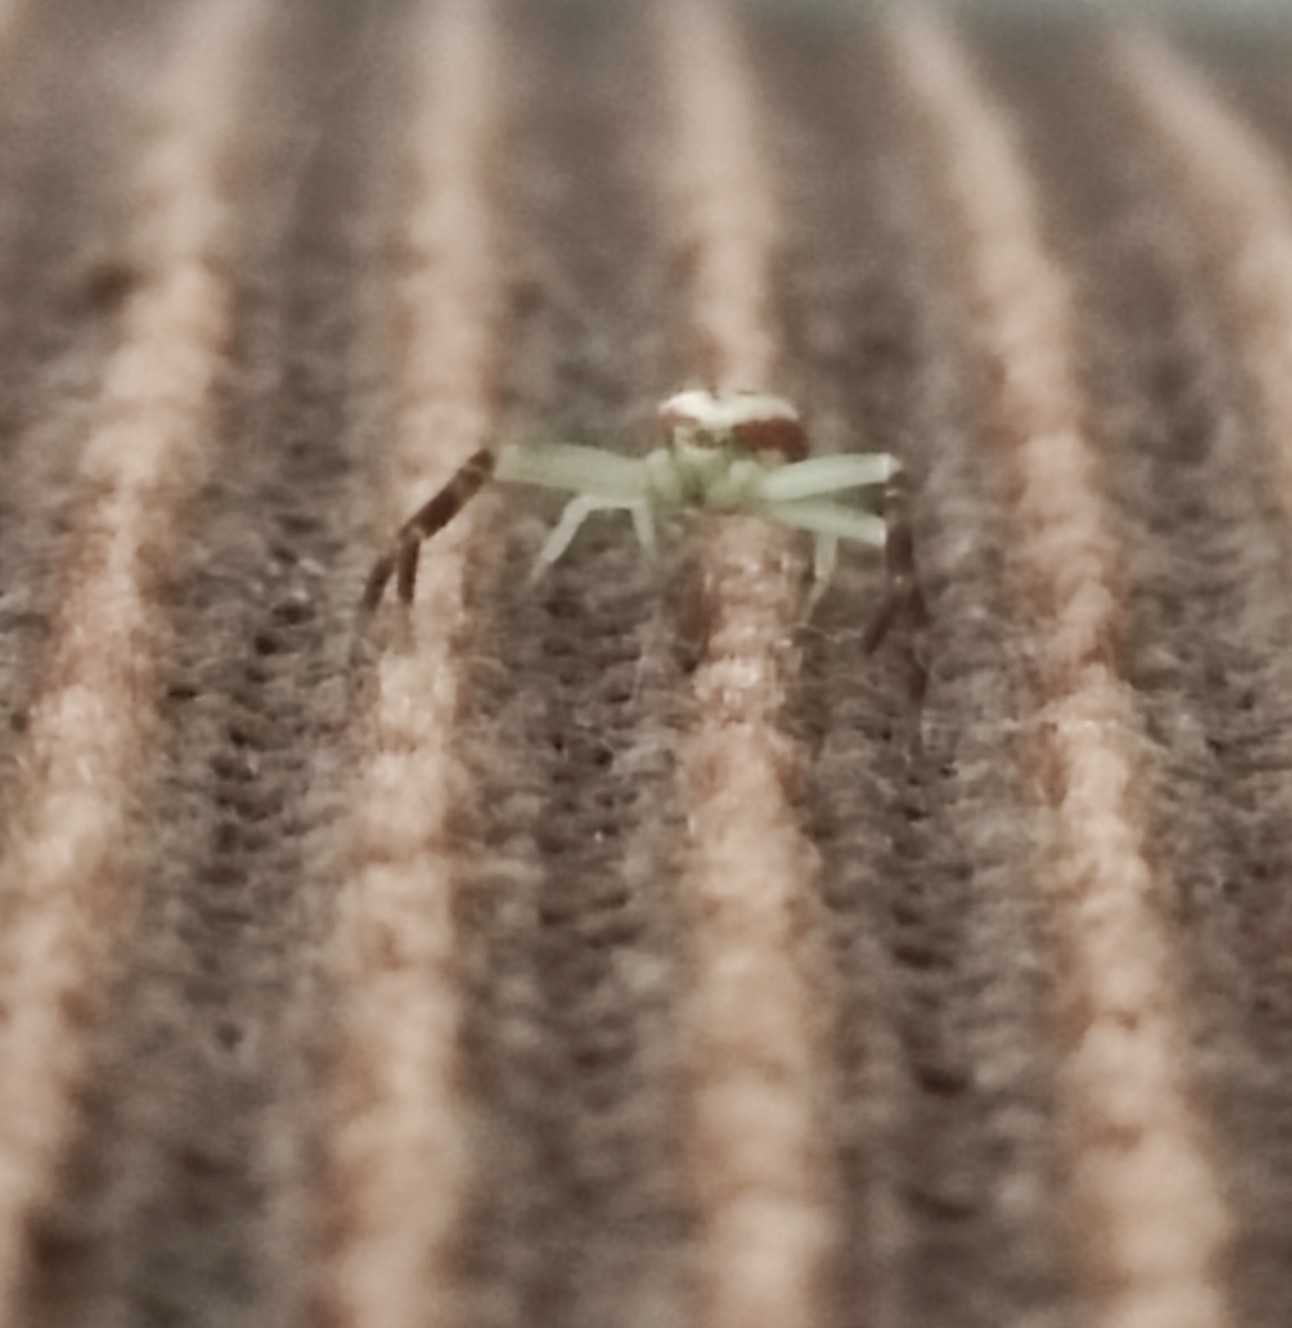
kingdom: Animalia
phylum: Arthropoda
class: Arachnida
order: Araneae
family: Thomisidae
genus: Misumena
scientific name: Misumena vatia
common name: Goldenrod crab spider
